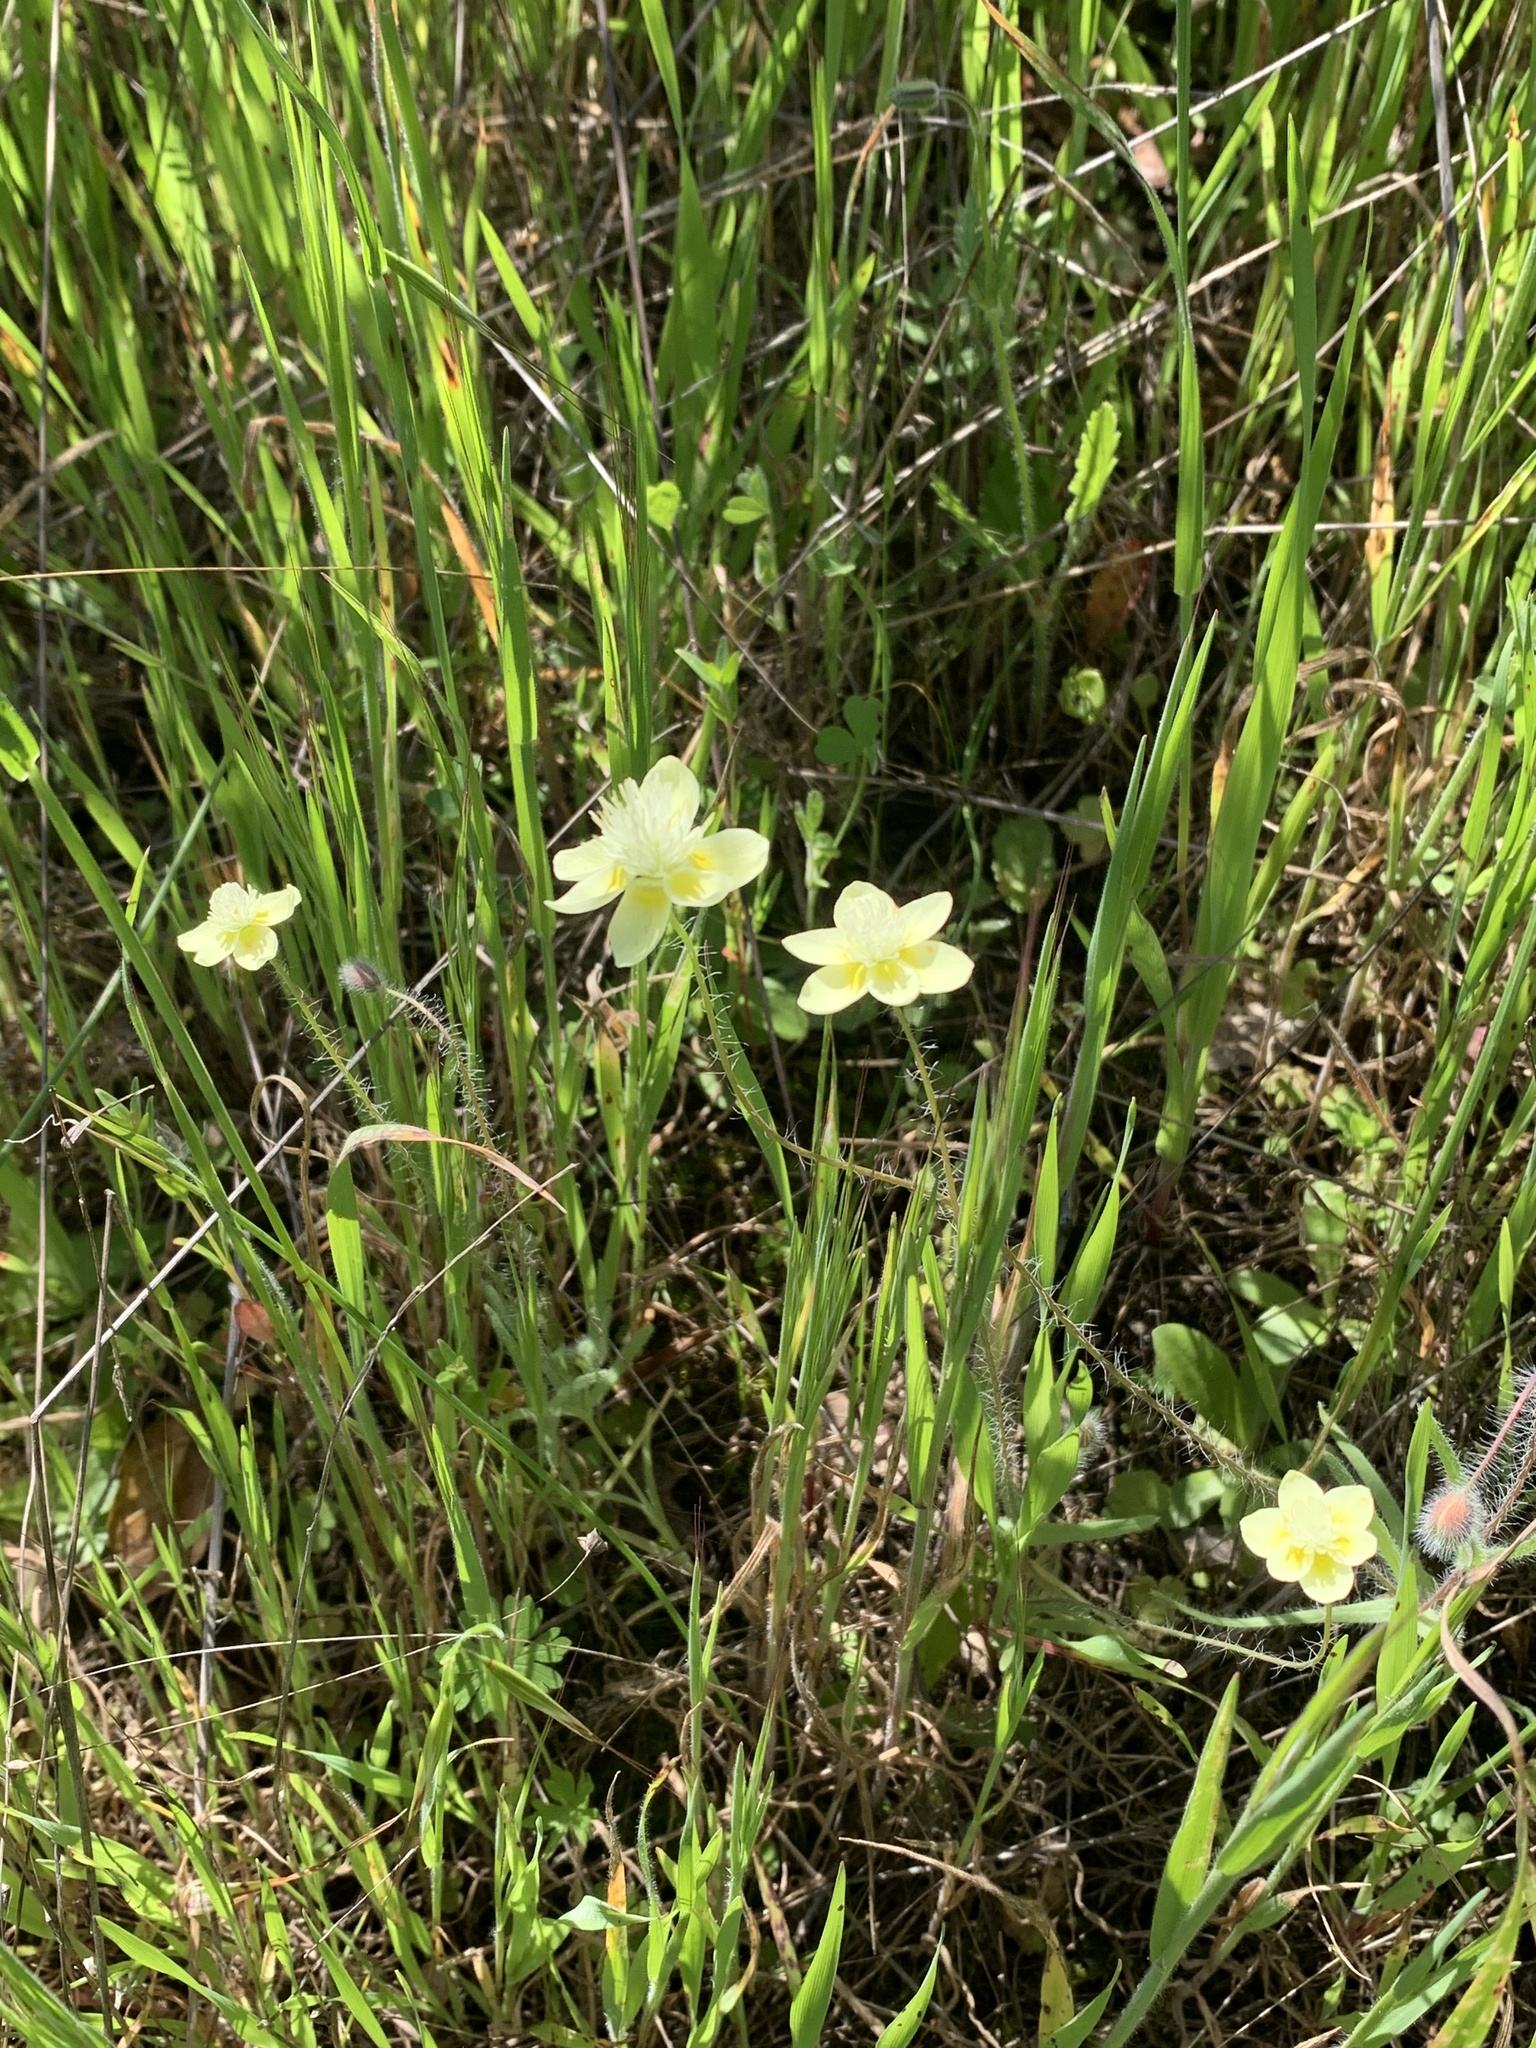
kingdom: Plantae
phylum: Tracheophyta
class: Magnoliopsida
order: Ranunculales
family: Papaveraceae
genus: Platystemon
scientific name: Platystemon californicus
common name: Cream-cups
